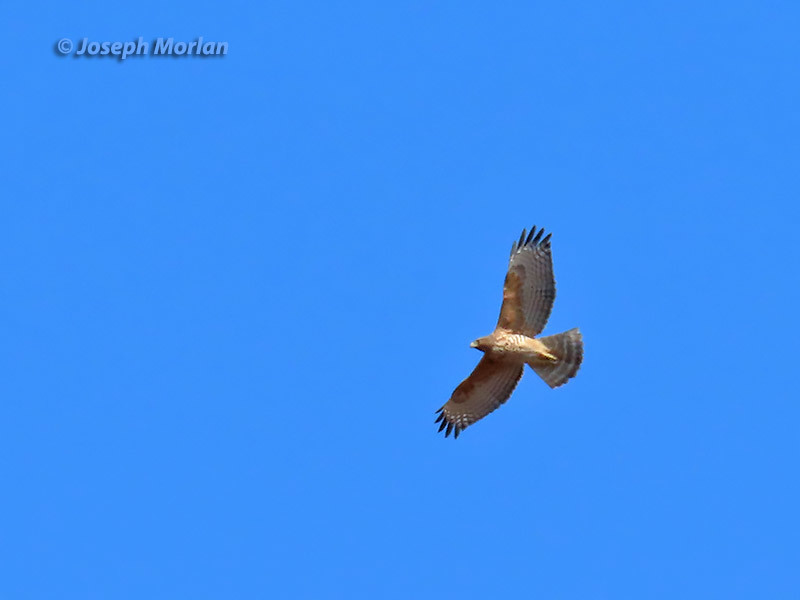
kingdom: Animalia
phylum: Chordata
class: Aves
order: Accipitriformes
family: Accipitridae
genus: Buteo
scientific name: Buteo lineatus
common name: Red-shouldered hawk
